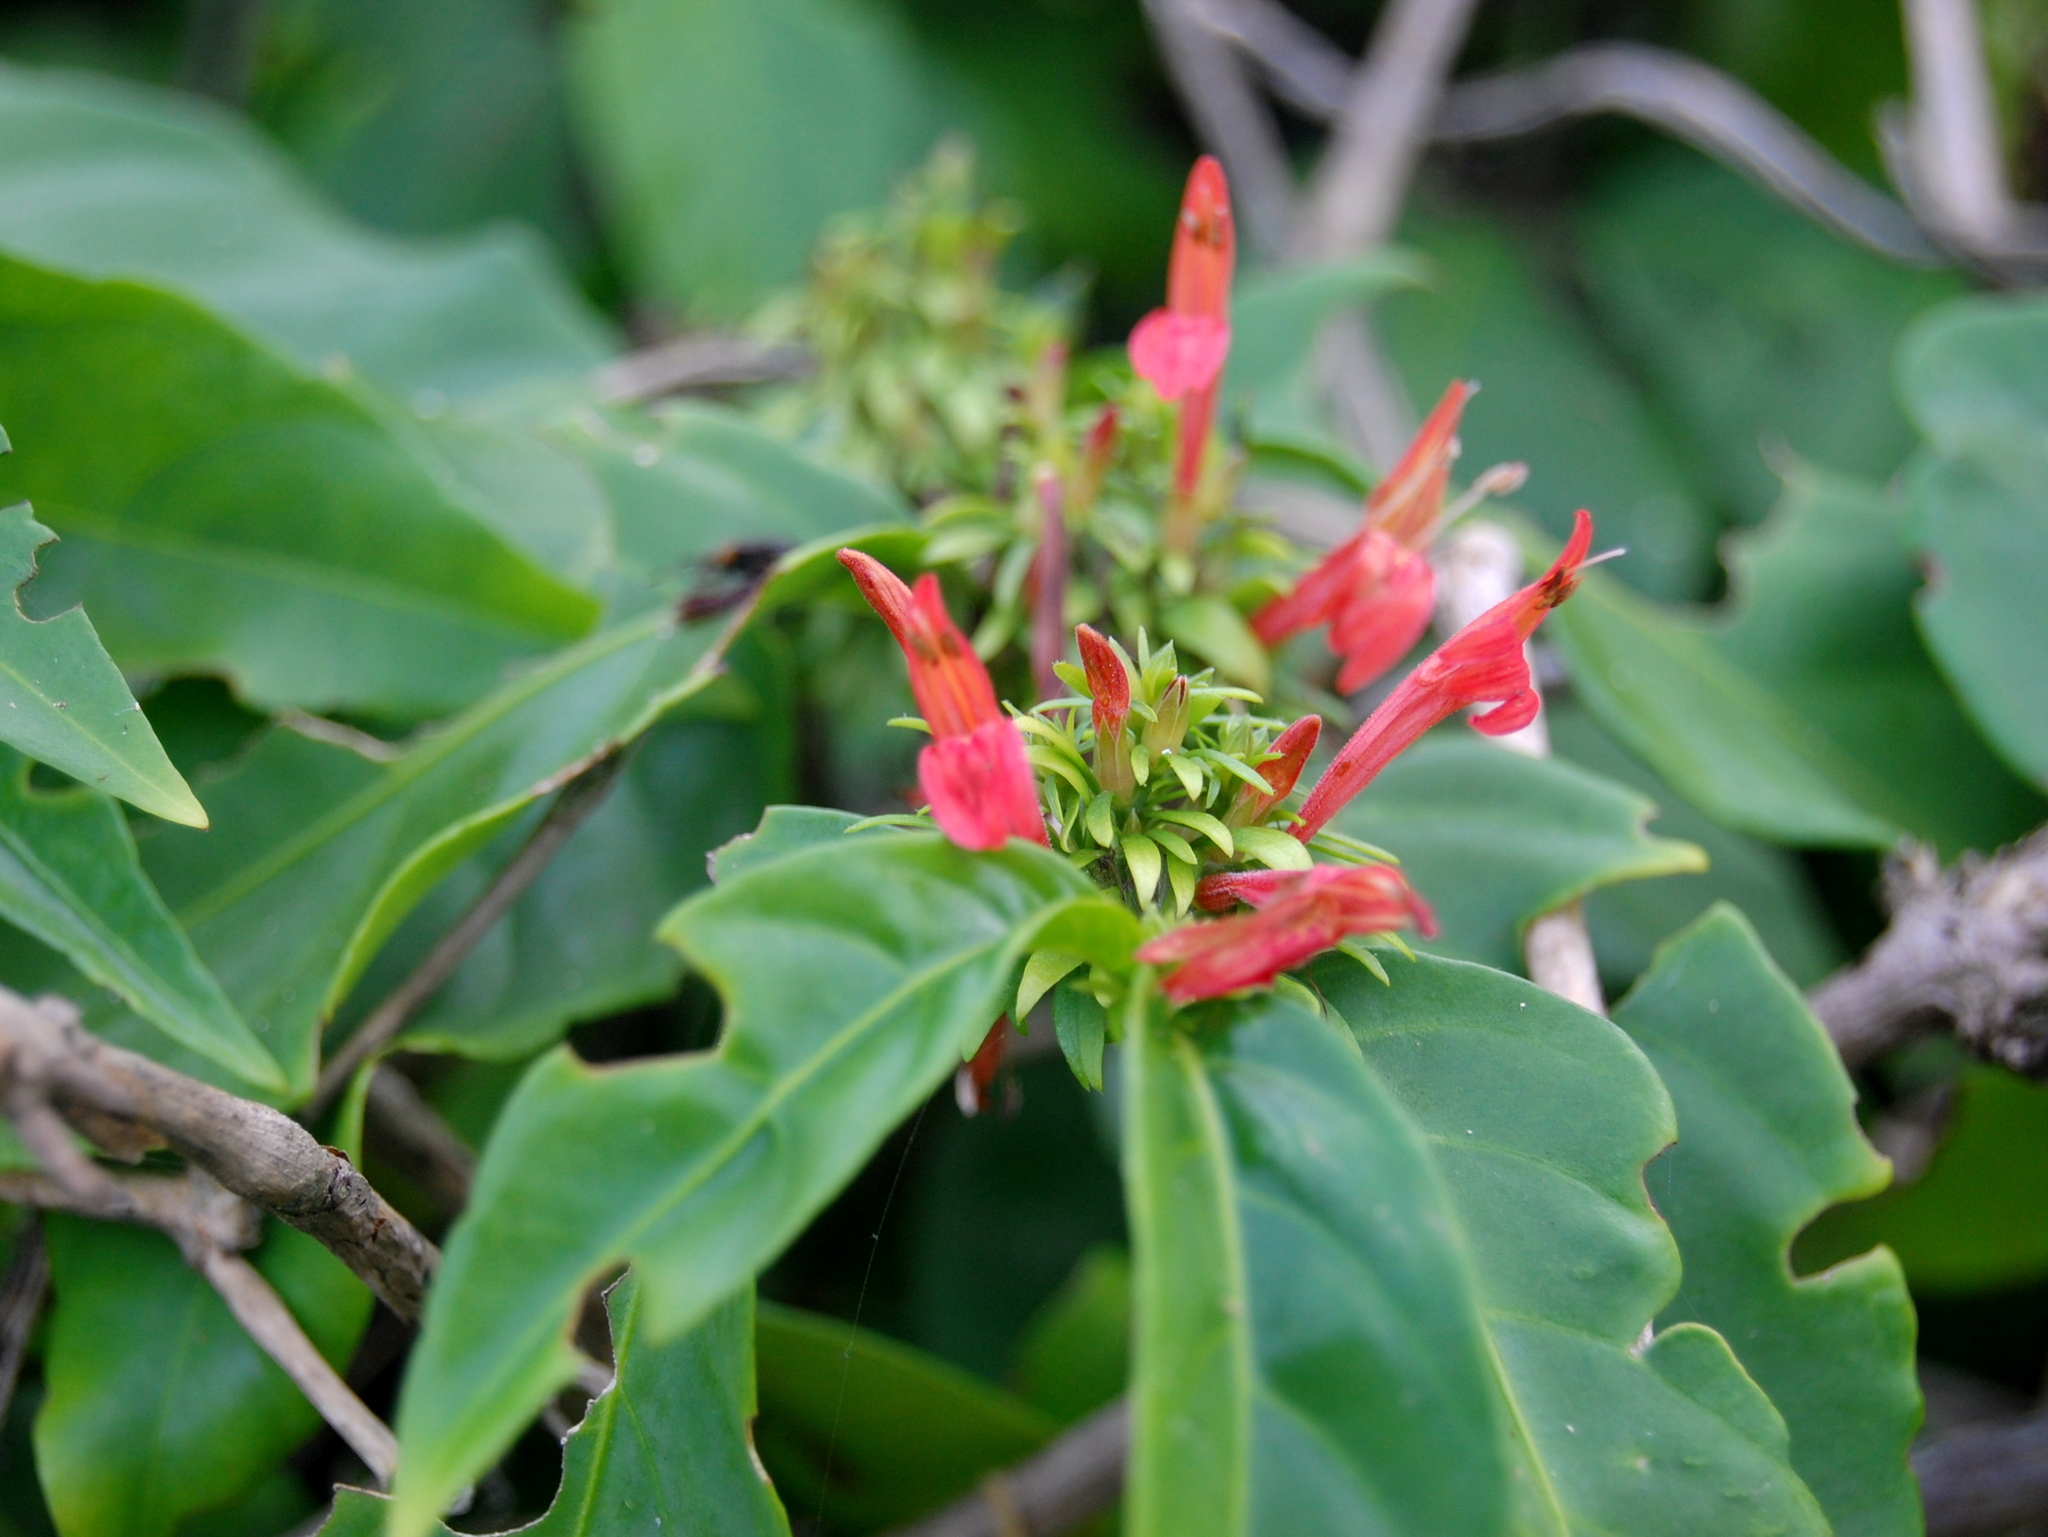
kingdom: Plantae
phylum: Tracheophyta
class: Magnoliopsida
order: Lamiales
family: Acanthaceae
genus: Justicia
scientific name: Justicia brasiliana
